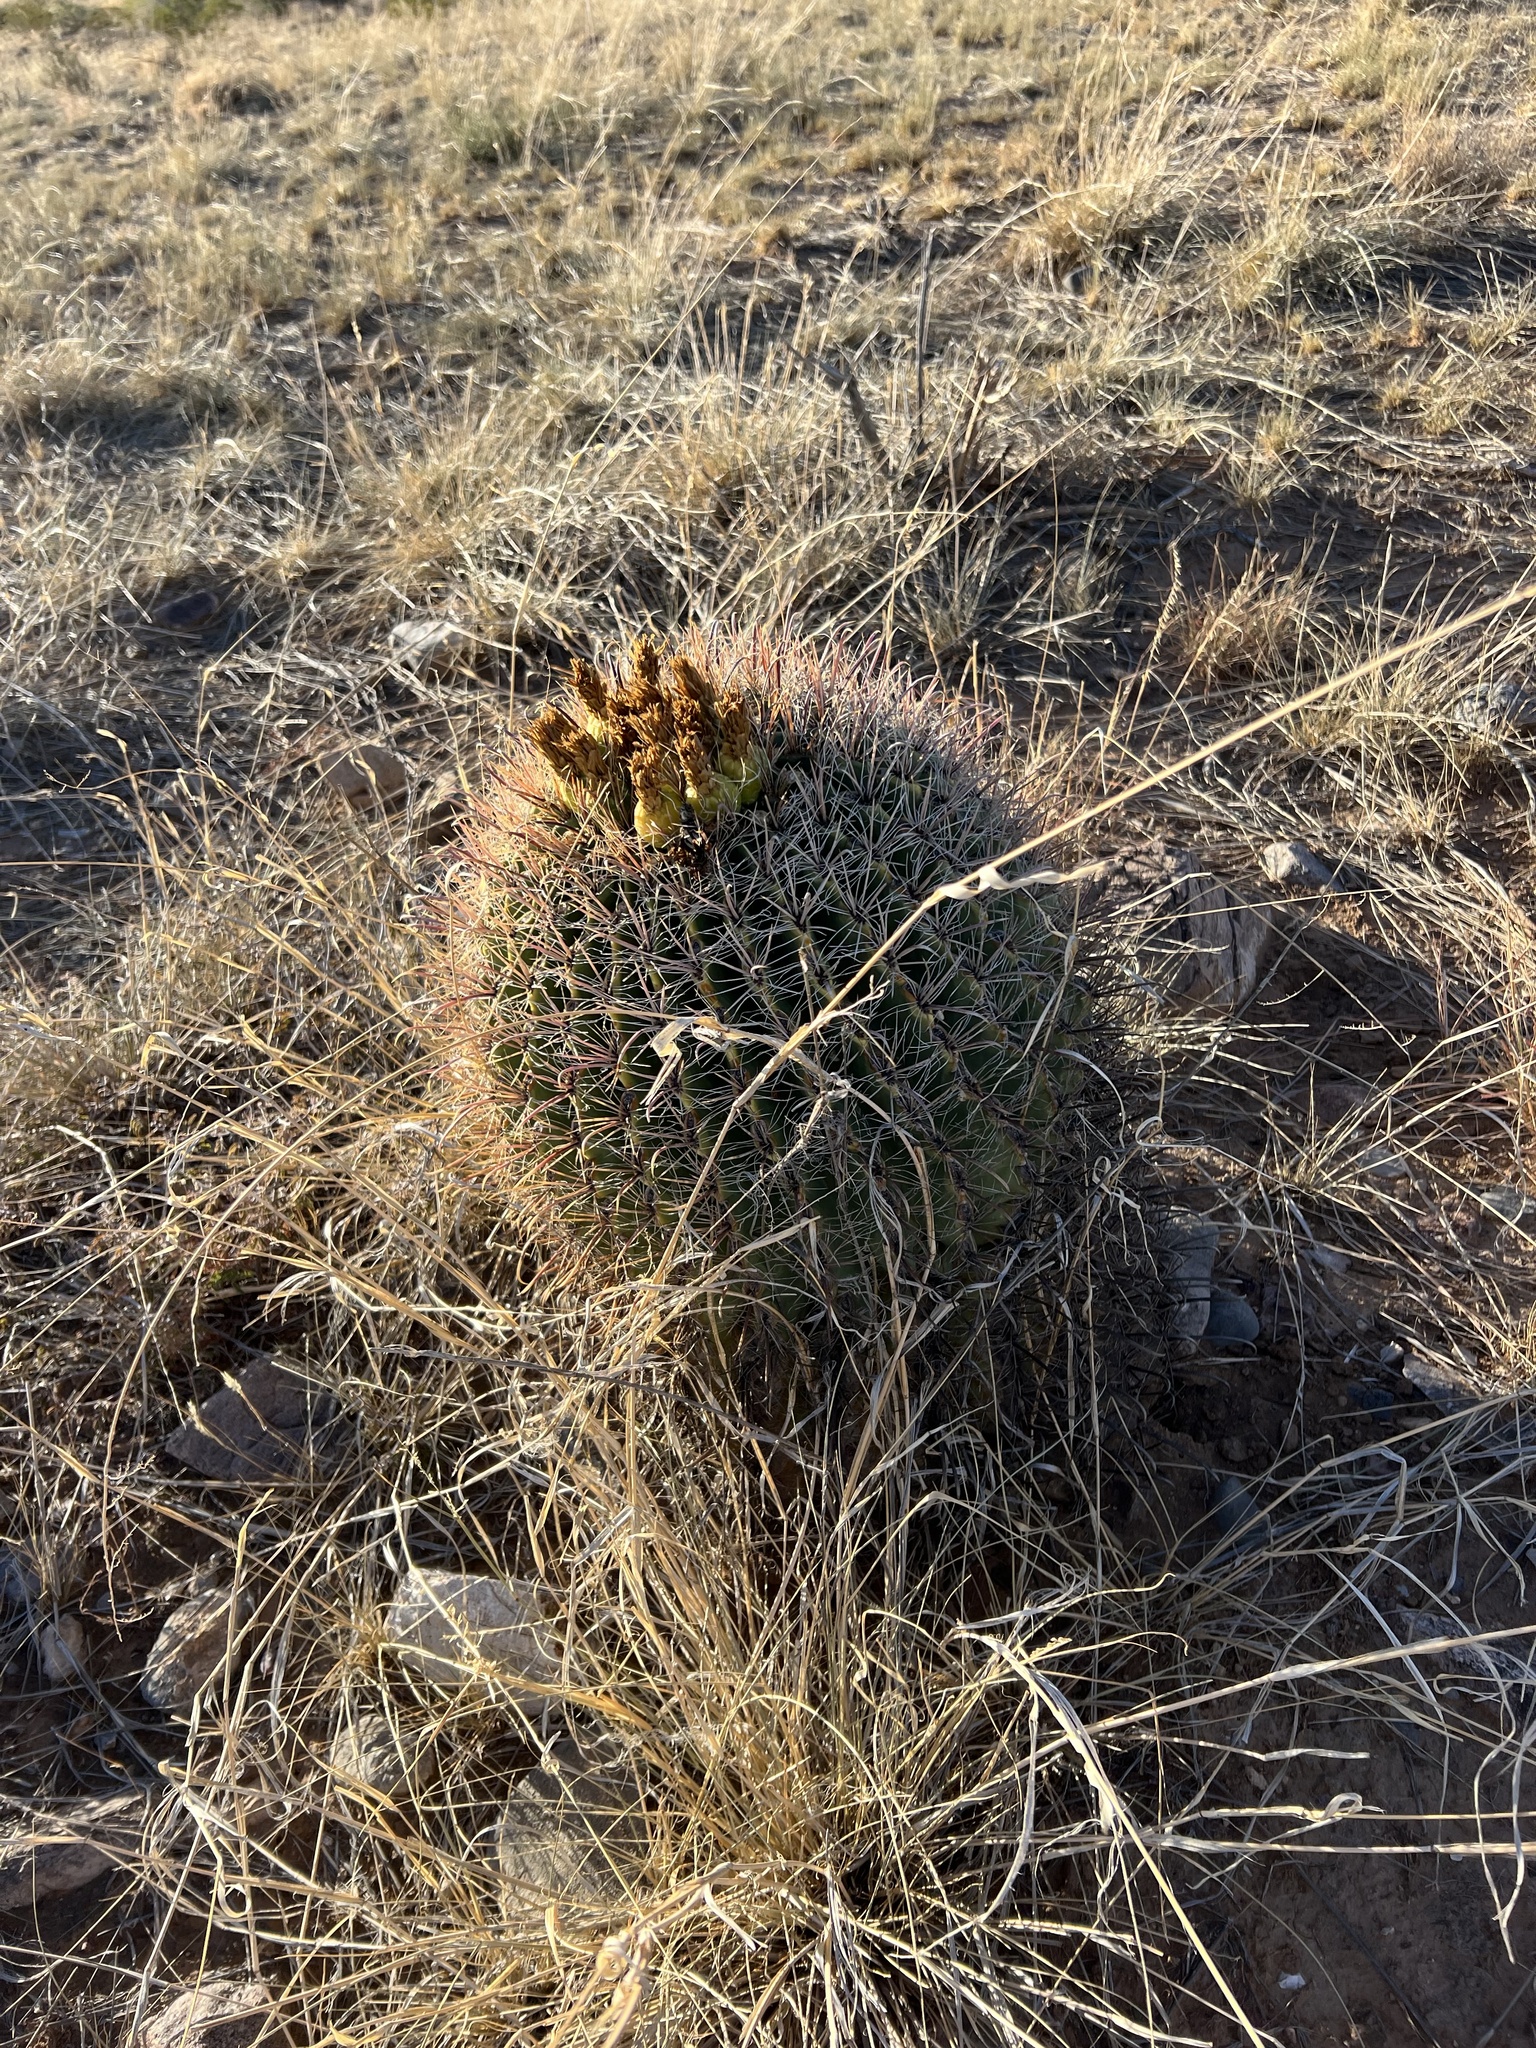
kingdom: Plantae
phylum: Tracheophyta
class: Magnoliopsida
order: Caryophyllales
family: Cactaceae
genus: Ferocactus
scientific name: Ferocactus wislizeni
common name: Candy barrel cactus
